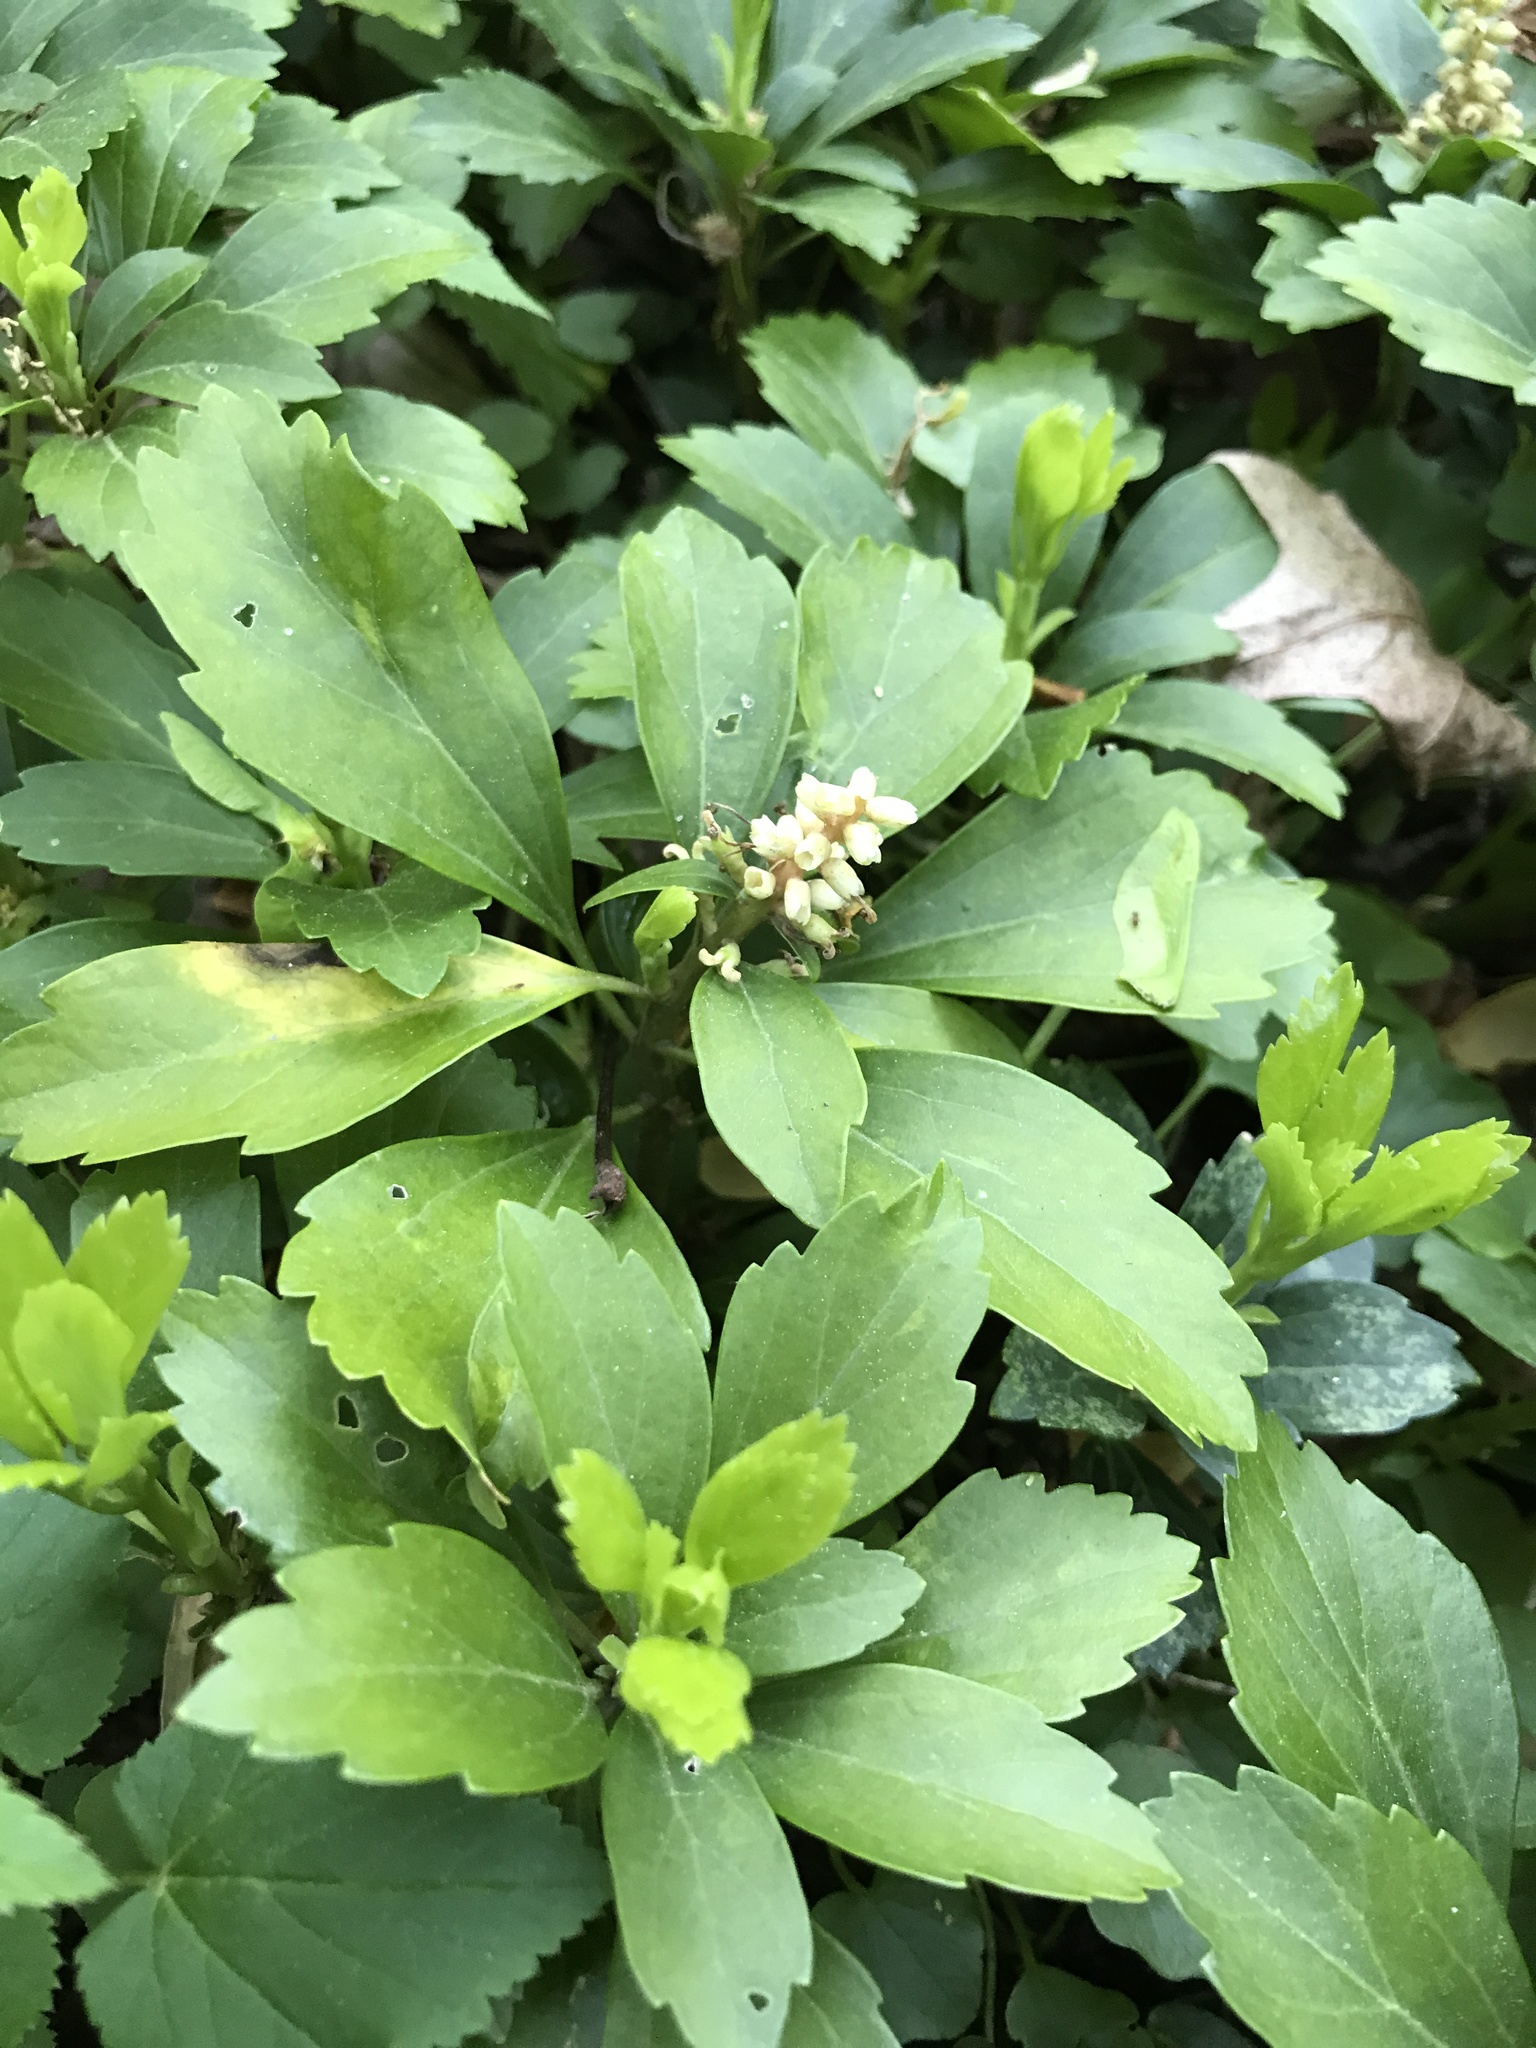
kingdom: Plantae
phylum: Tracheophyta
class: Magnoliopsida
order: Buxales
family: Buxaceae
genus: Pachysandra
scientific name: Pachysandra terminalis
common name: Japanese pachysandra
